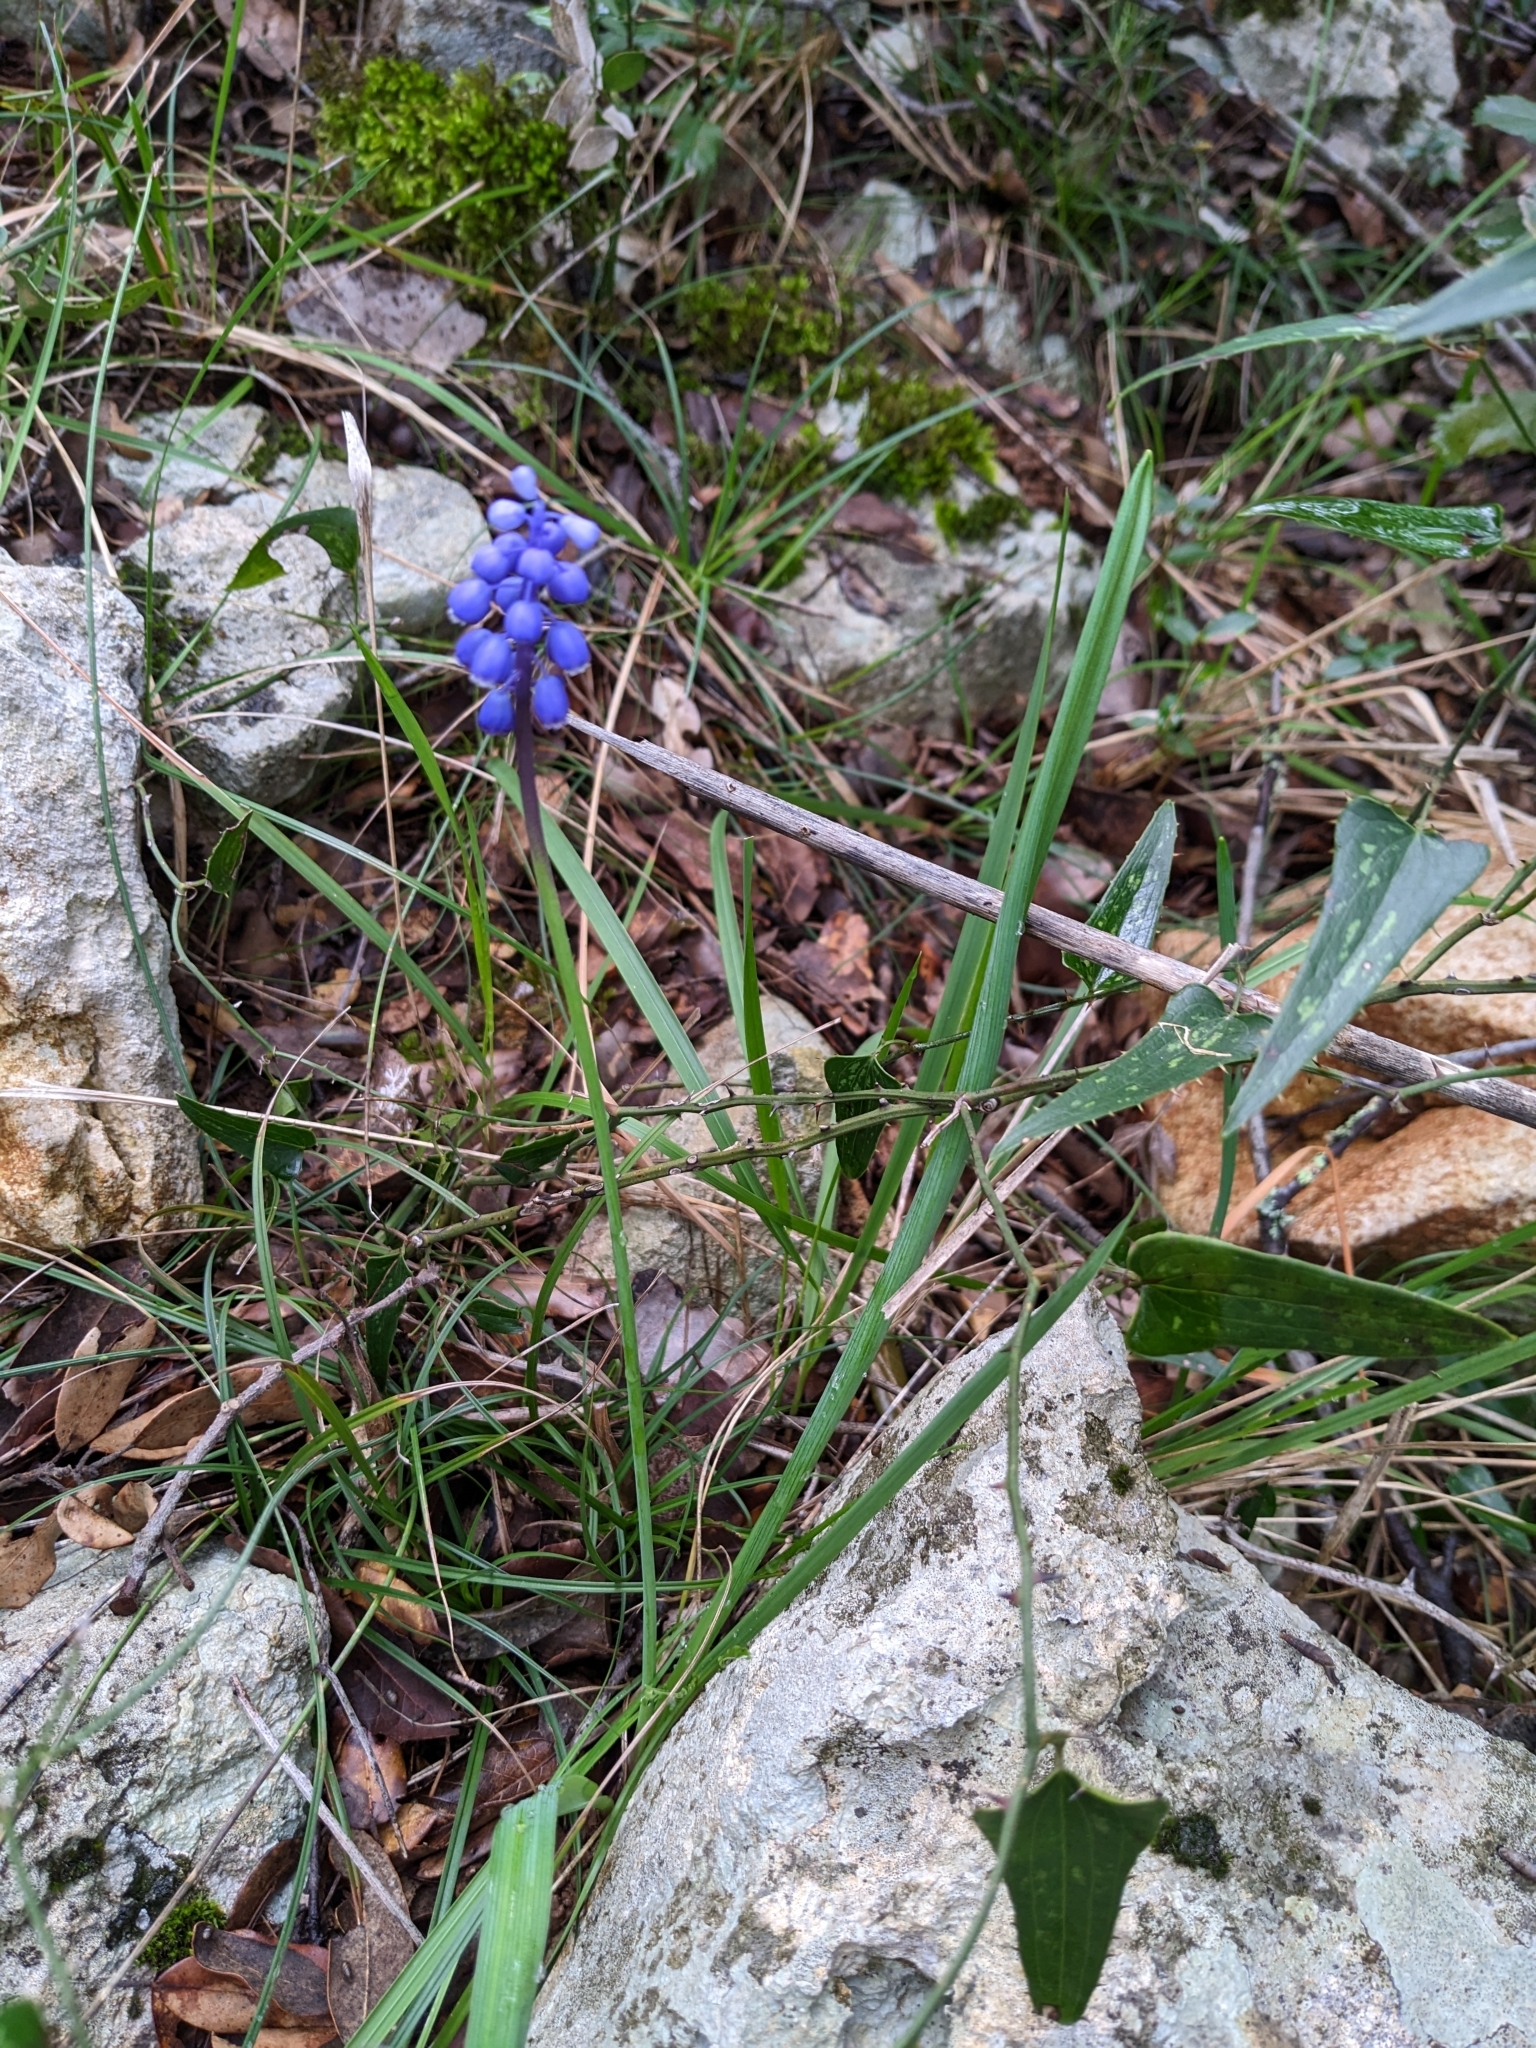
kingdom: Plantae
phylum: Tracheophyta
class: Liliopsida
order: Asparagales
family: Asparagaceae
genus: Muscari
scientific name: Muscari botryoides
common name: Compact grape-hyacinth
